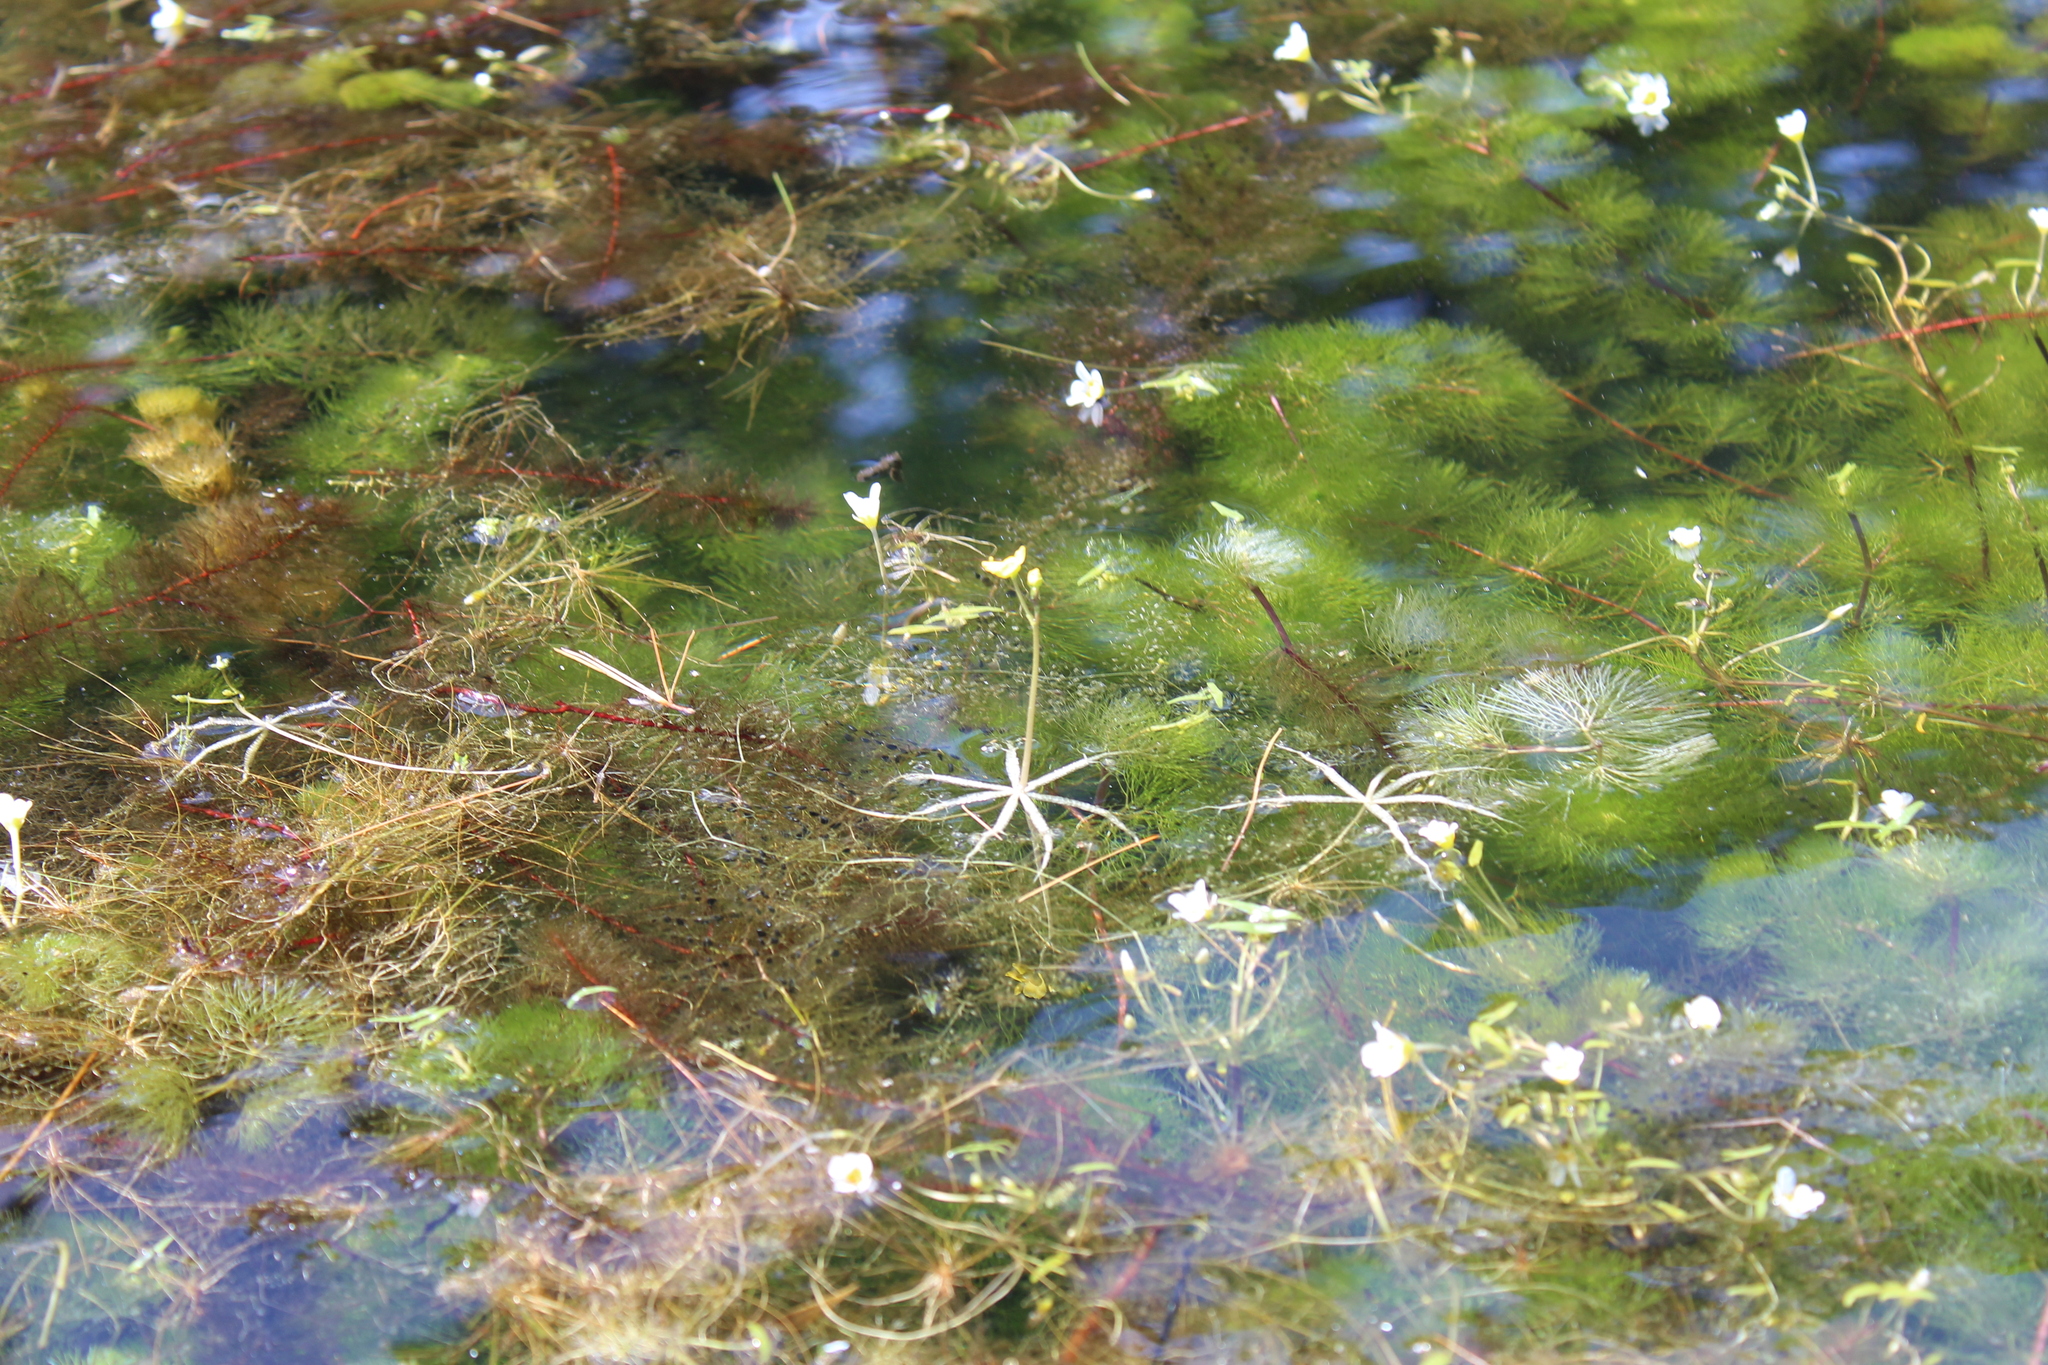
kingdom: Plantae
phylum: Tracheophyta
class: Magnoliopsida
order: Nymphaeales
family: Cabombaceae
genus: Cabomba
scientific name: Cabomba caroliniana
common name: Fanwort
